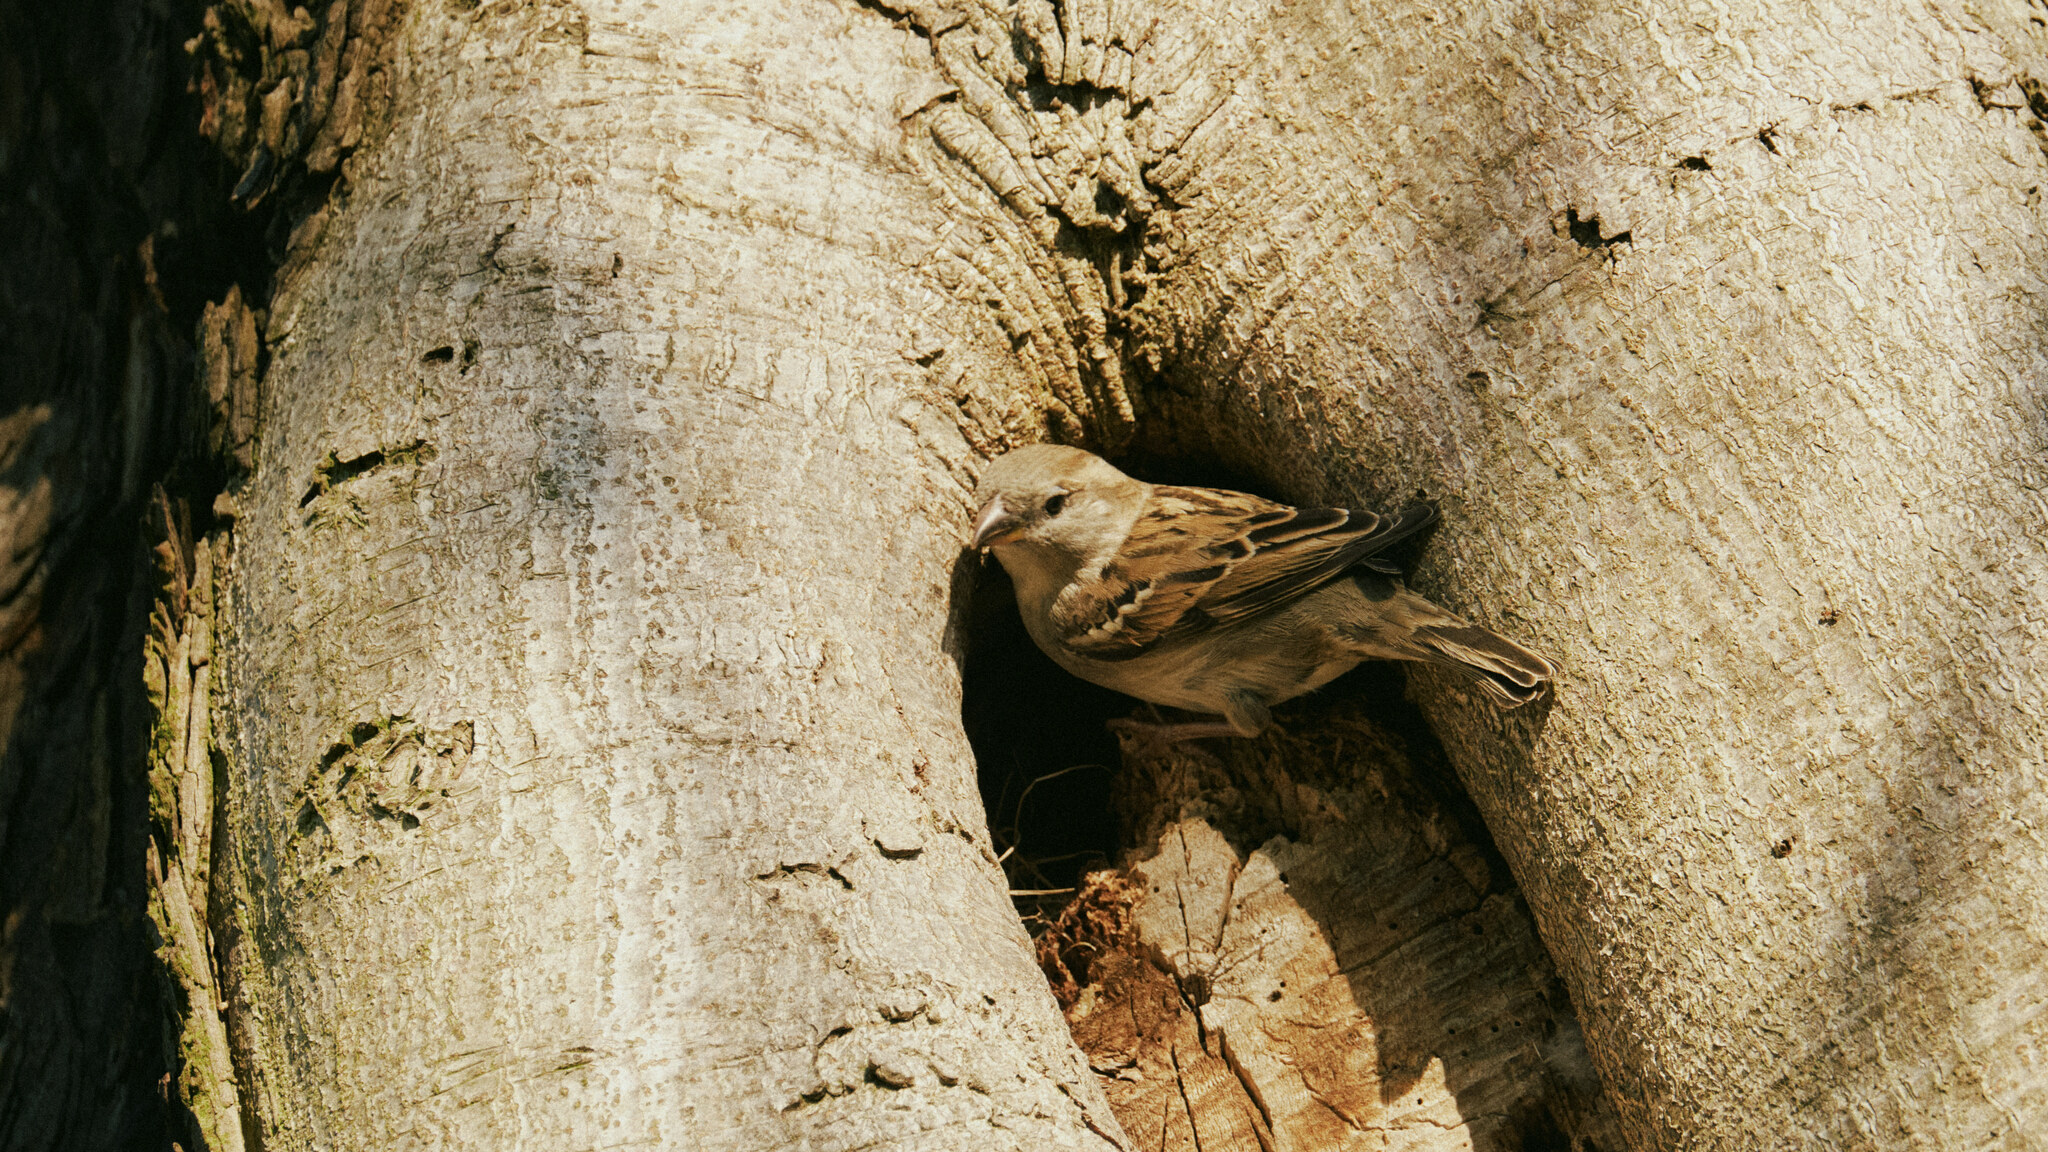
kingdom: Animalia
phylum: Chordata
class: Aves
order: Passeriformes
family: Passeridae
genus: Passer
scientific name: Passer domesticus
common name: House sparrow
